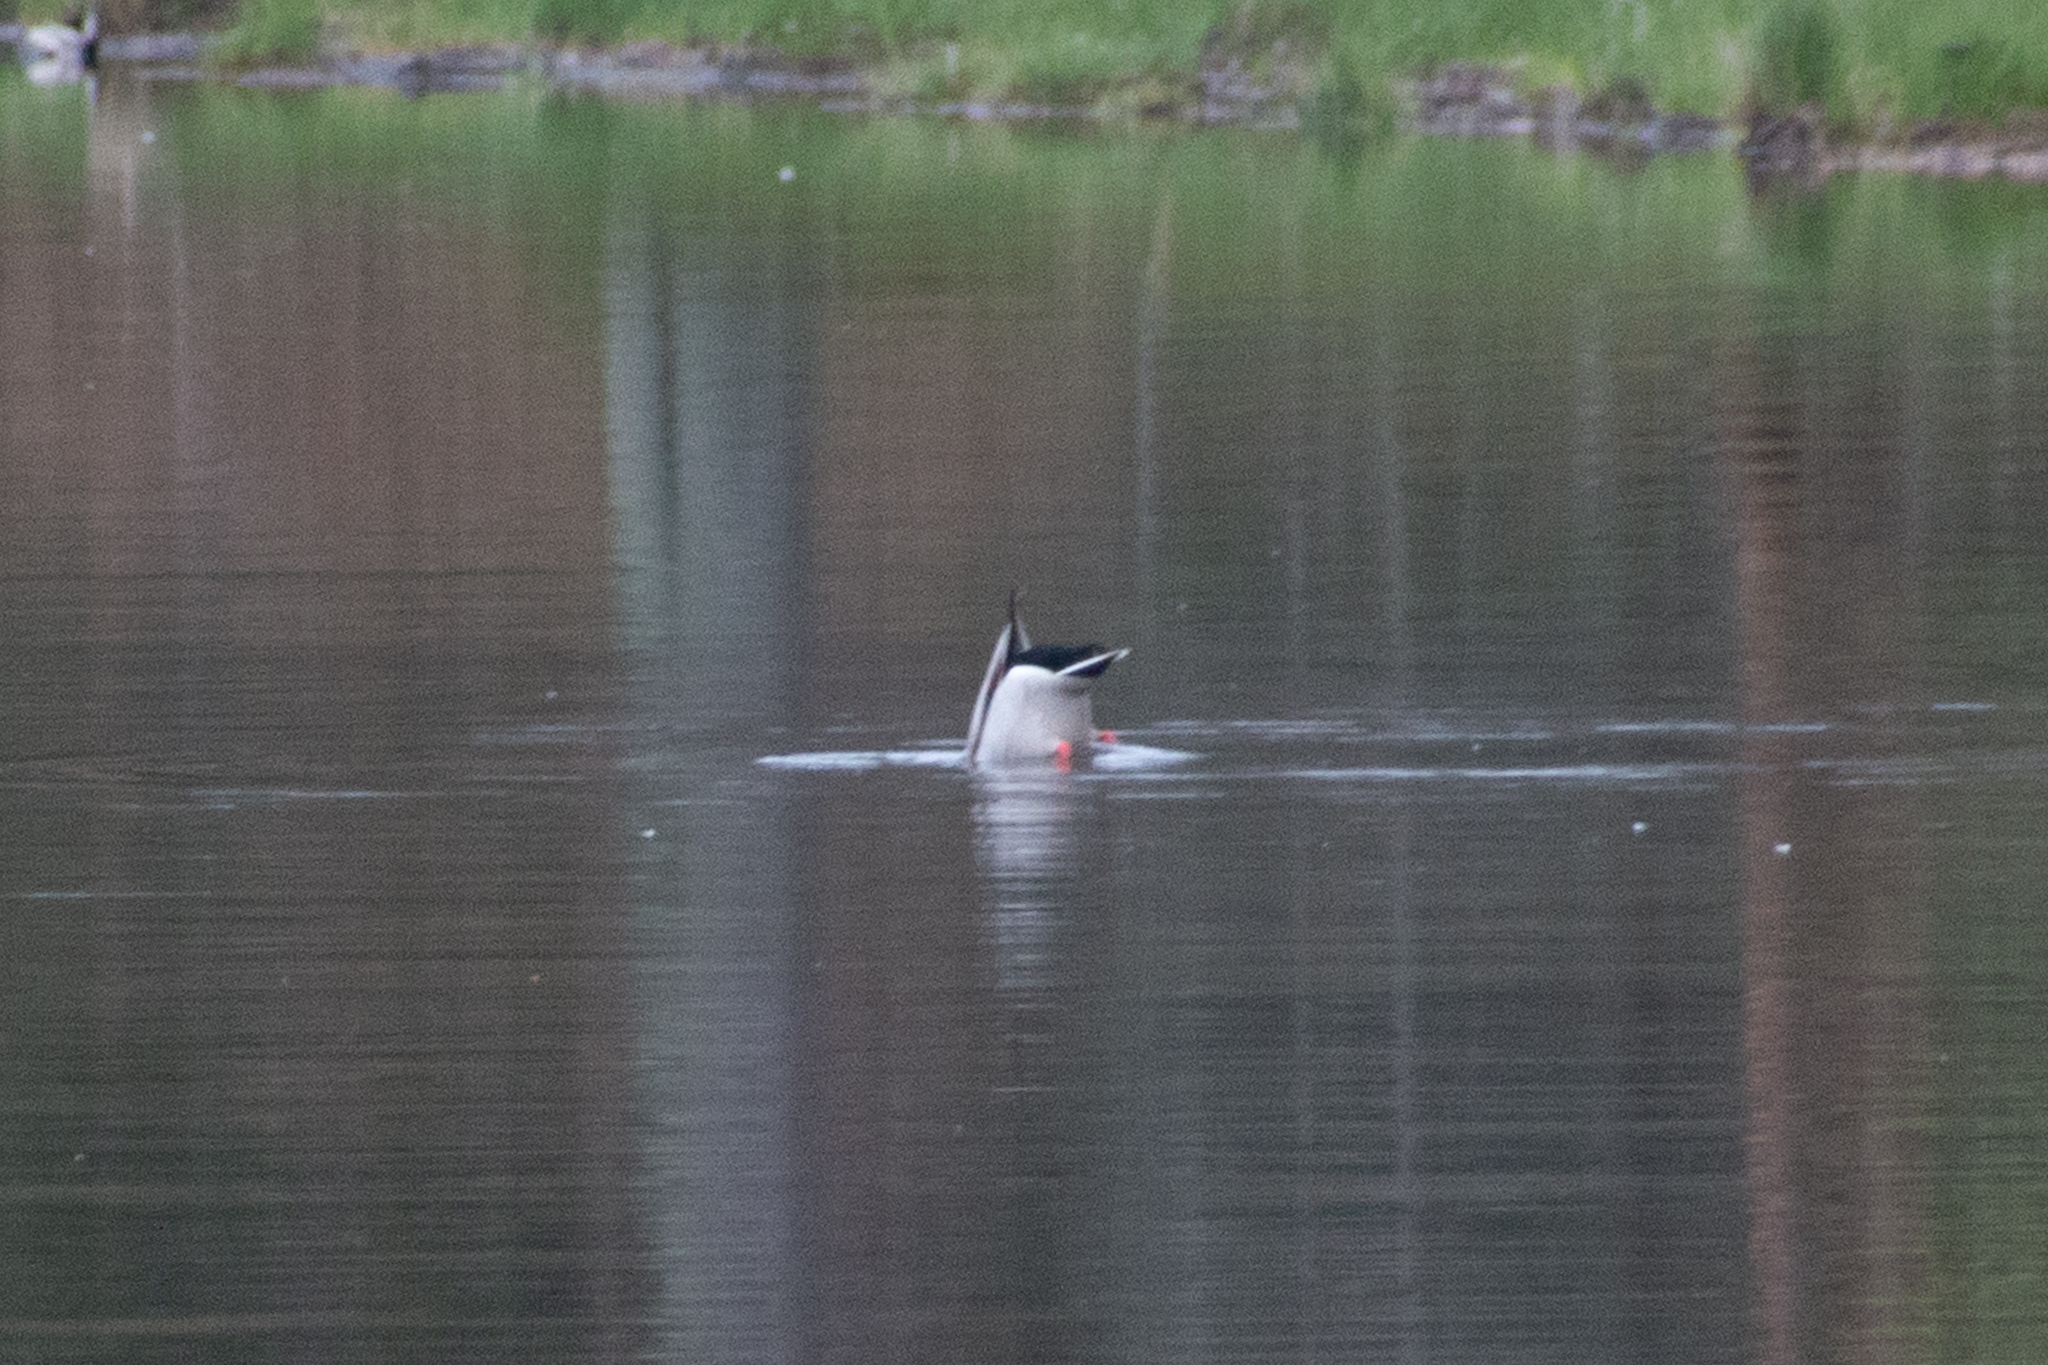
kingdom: Animalia
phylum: Chordata
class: Aves
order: Anseriformes
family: Anatidae
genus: Anas
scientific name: Anas platyrhynchos
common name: Mallard
